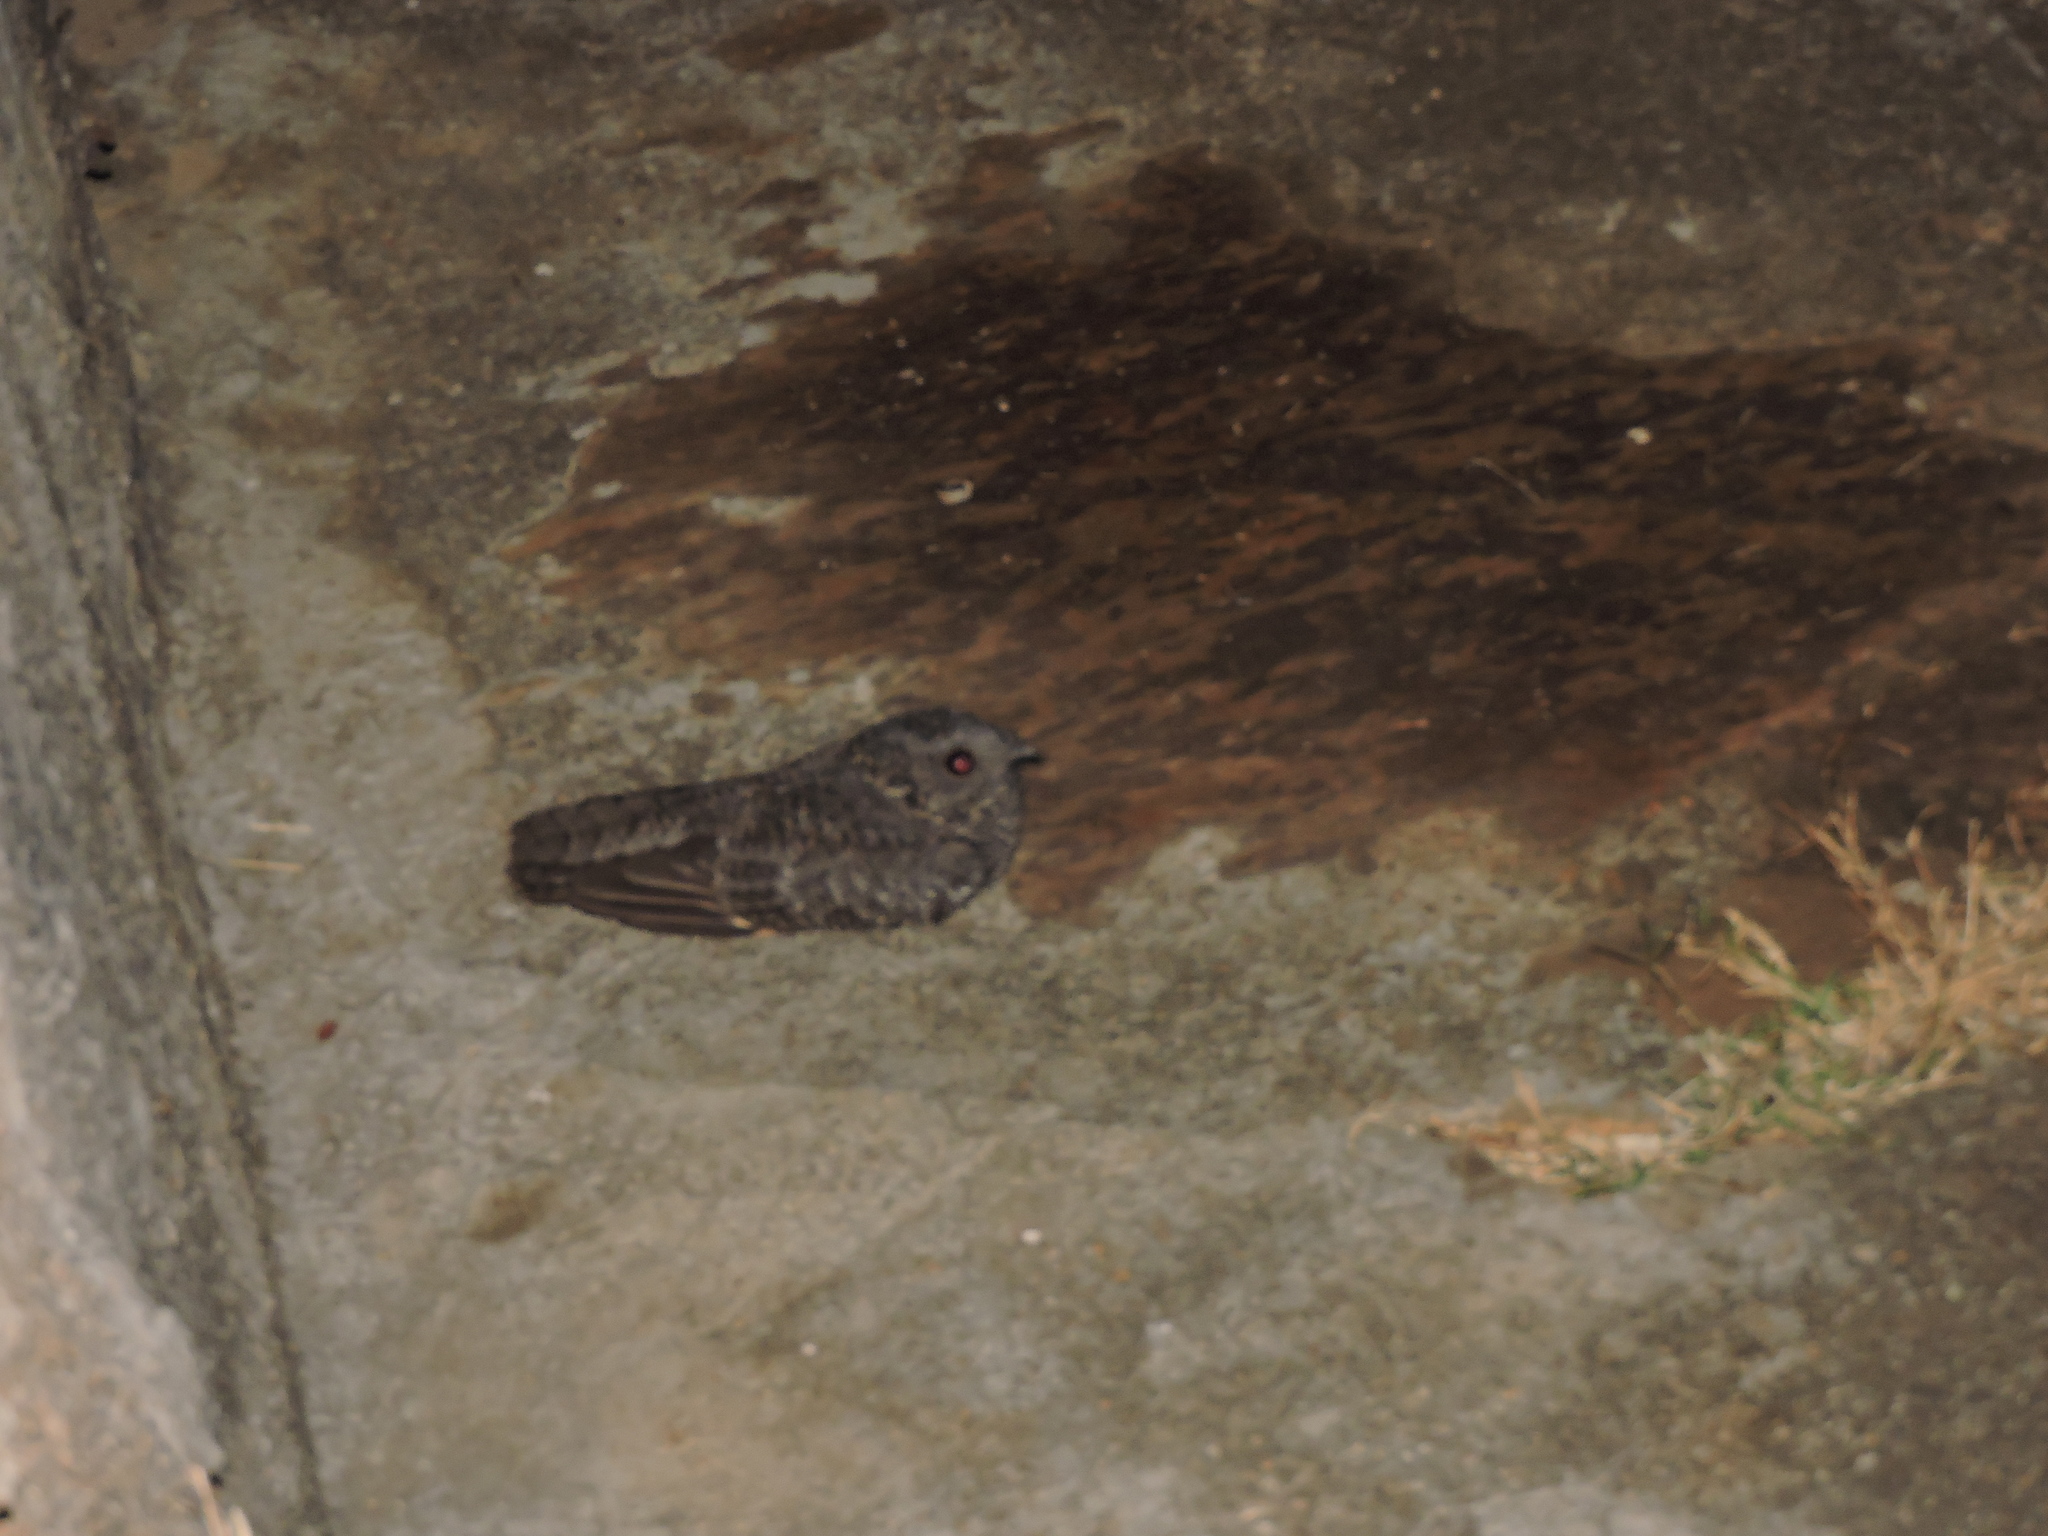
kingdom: Animalia
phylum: Chordata
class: Aves
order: Caprimulgiformes
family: Caprimulgidae
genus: Nyctidromus
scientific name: Nyctidromus albicollis
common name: Pauraque
